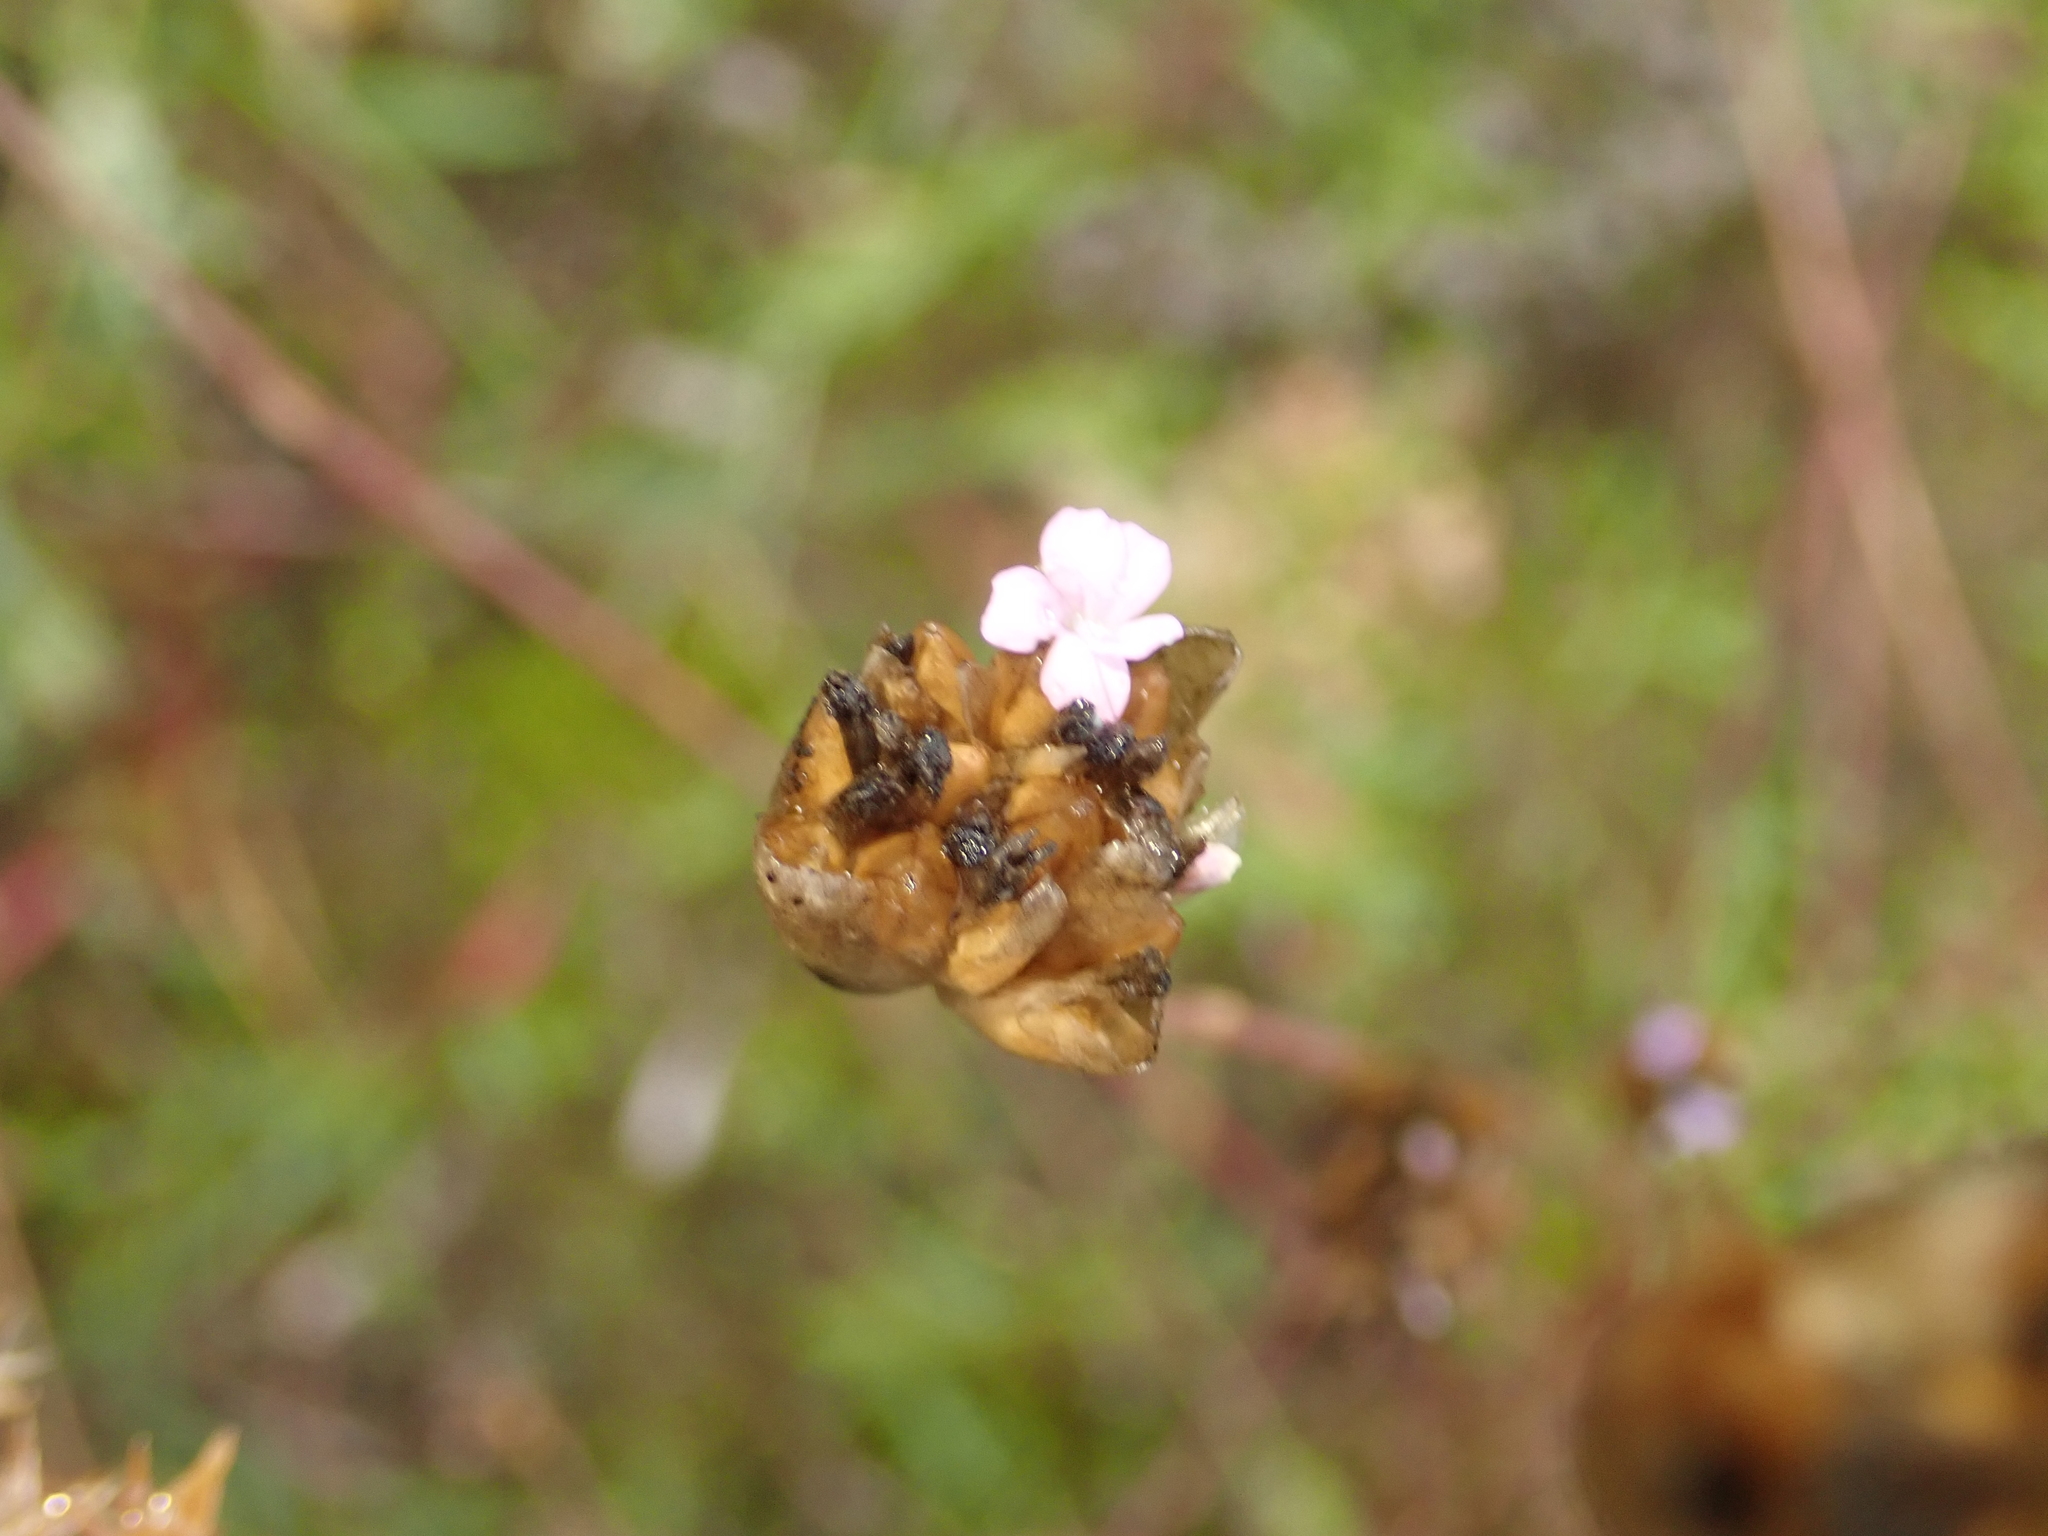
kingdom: Plantae
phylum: Tracheophyta
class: Magnoliopsida
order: Caryophyllales
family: Caryophyllaceae
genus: Petrorhagia
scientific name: Petrorhagia prolifera
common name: Proliferous pink
